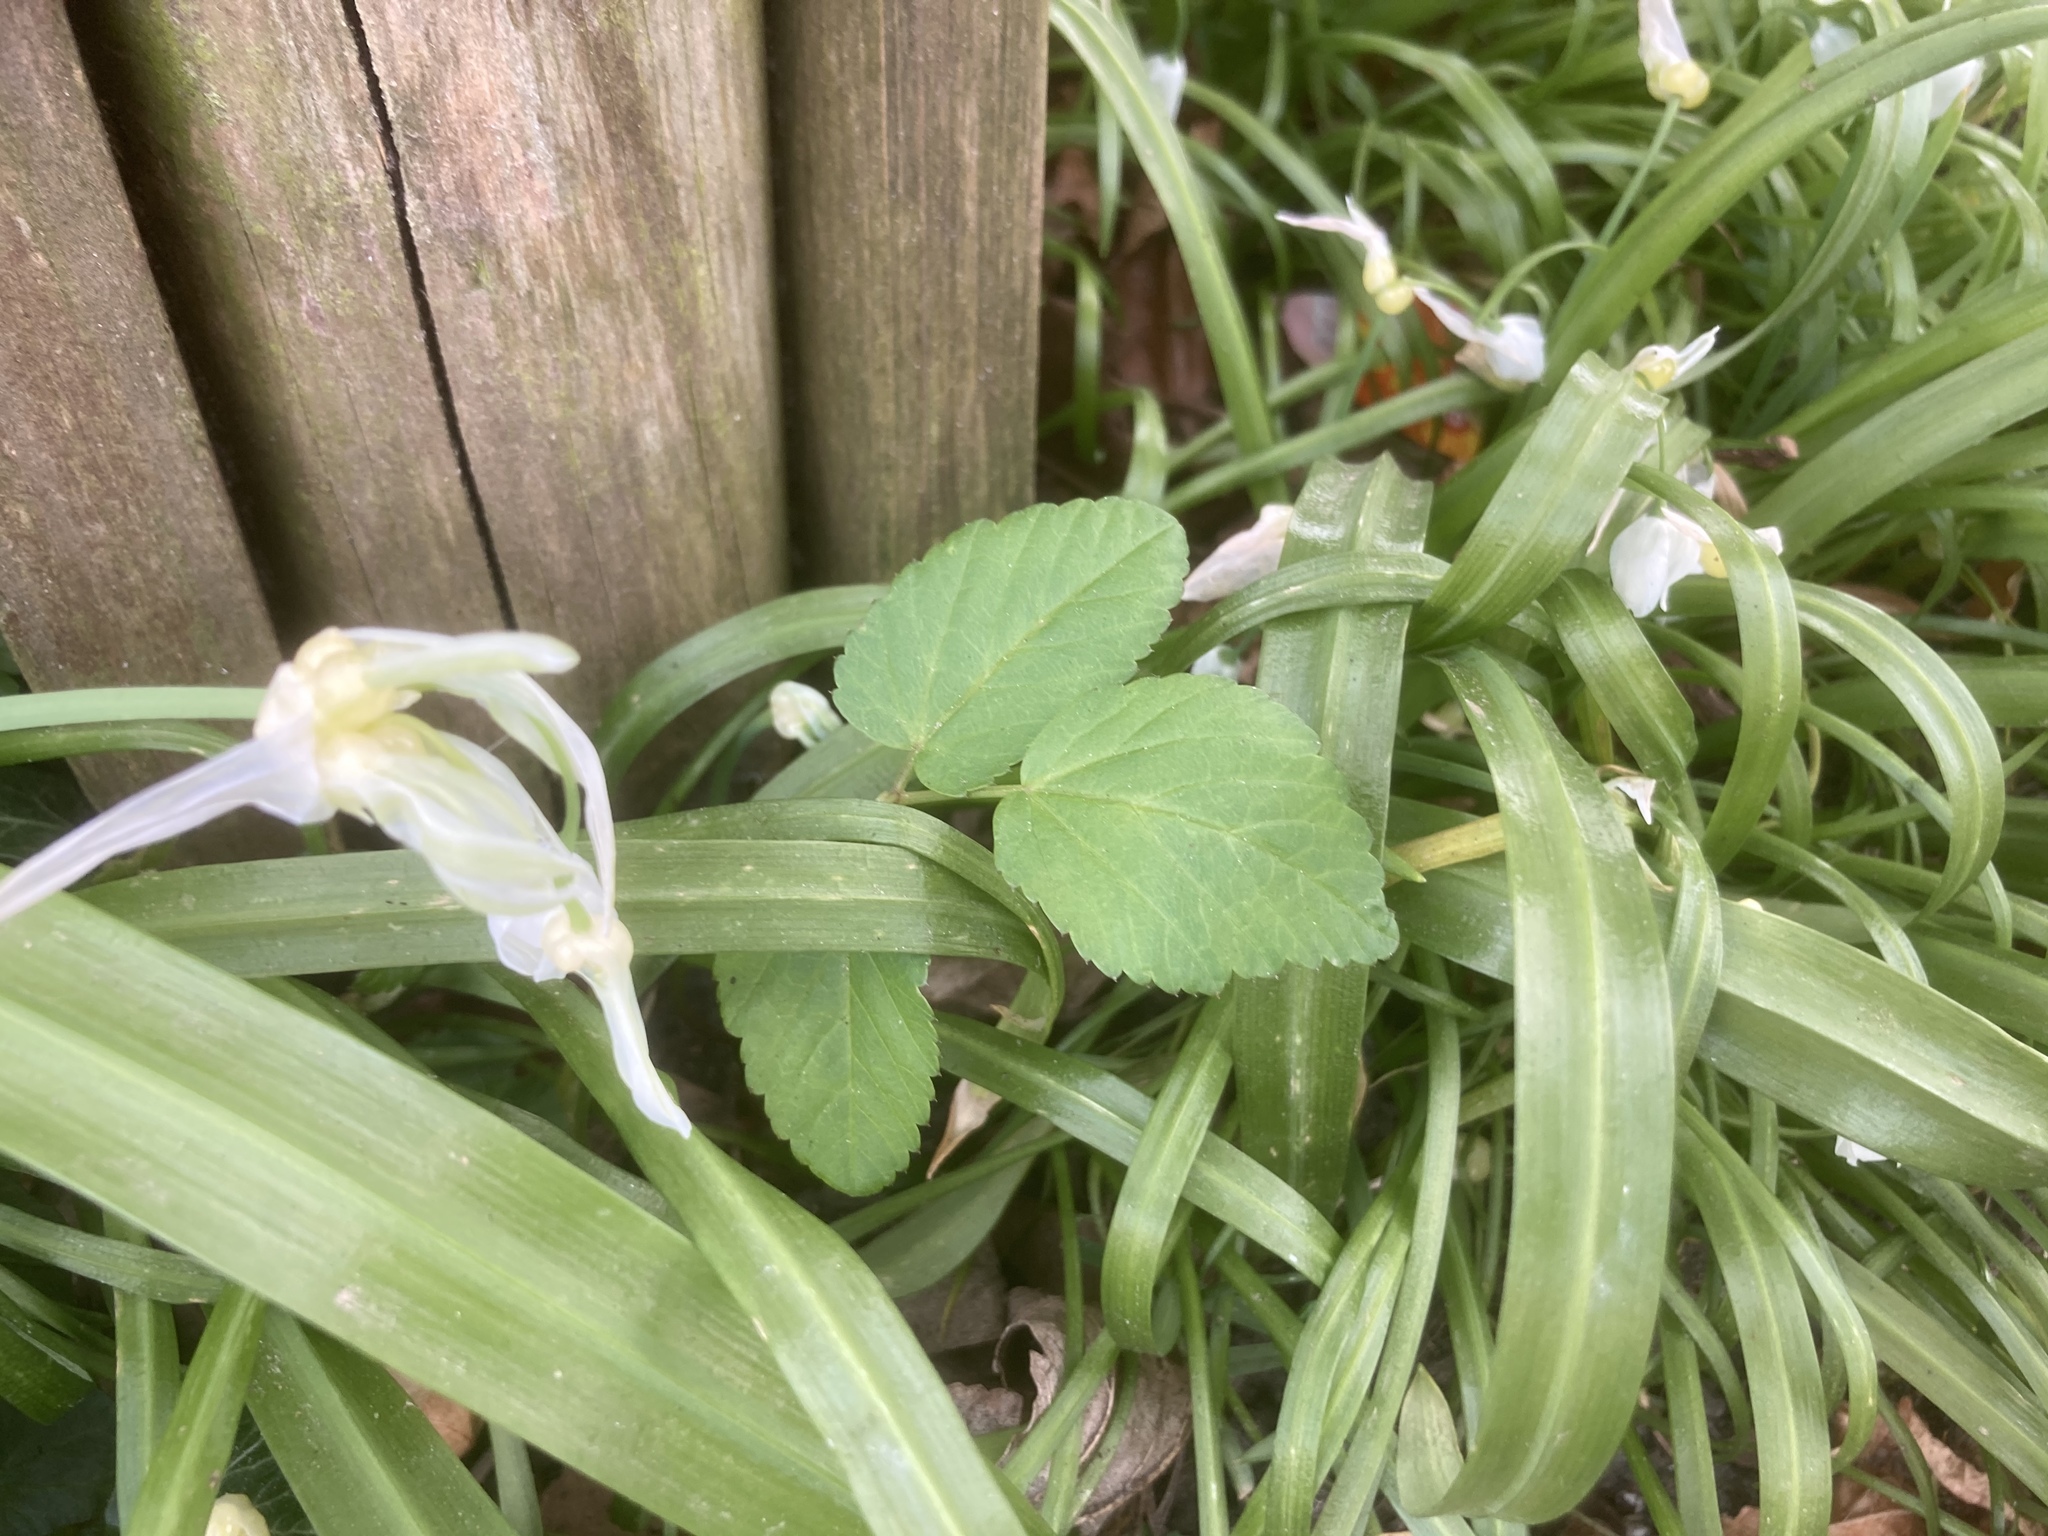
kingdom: Plantae
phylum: Tracheophyta
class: Liliopsida
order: Asparagales
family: Amaryllidaceae
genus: Allium
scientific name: Allium paradoxum
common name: Few-flowered garlic
